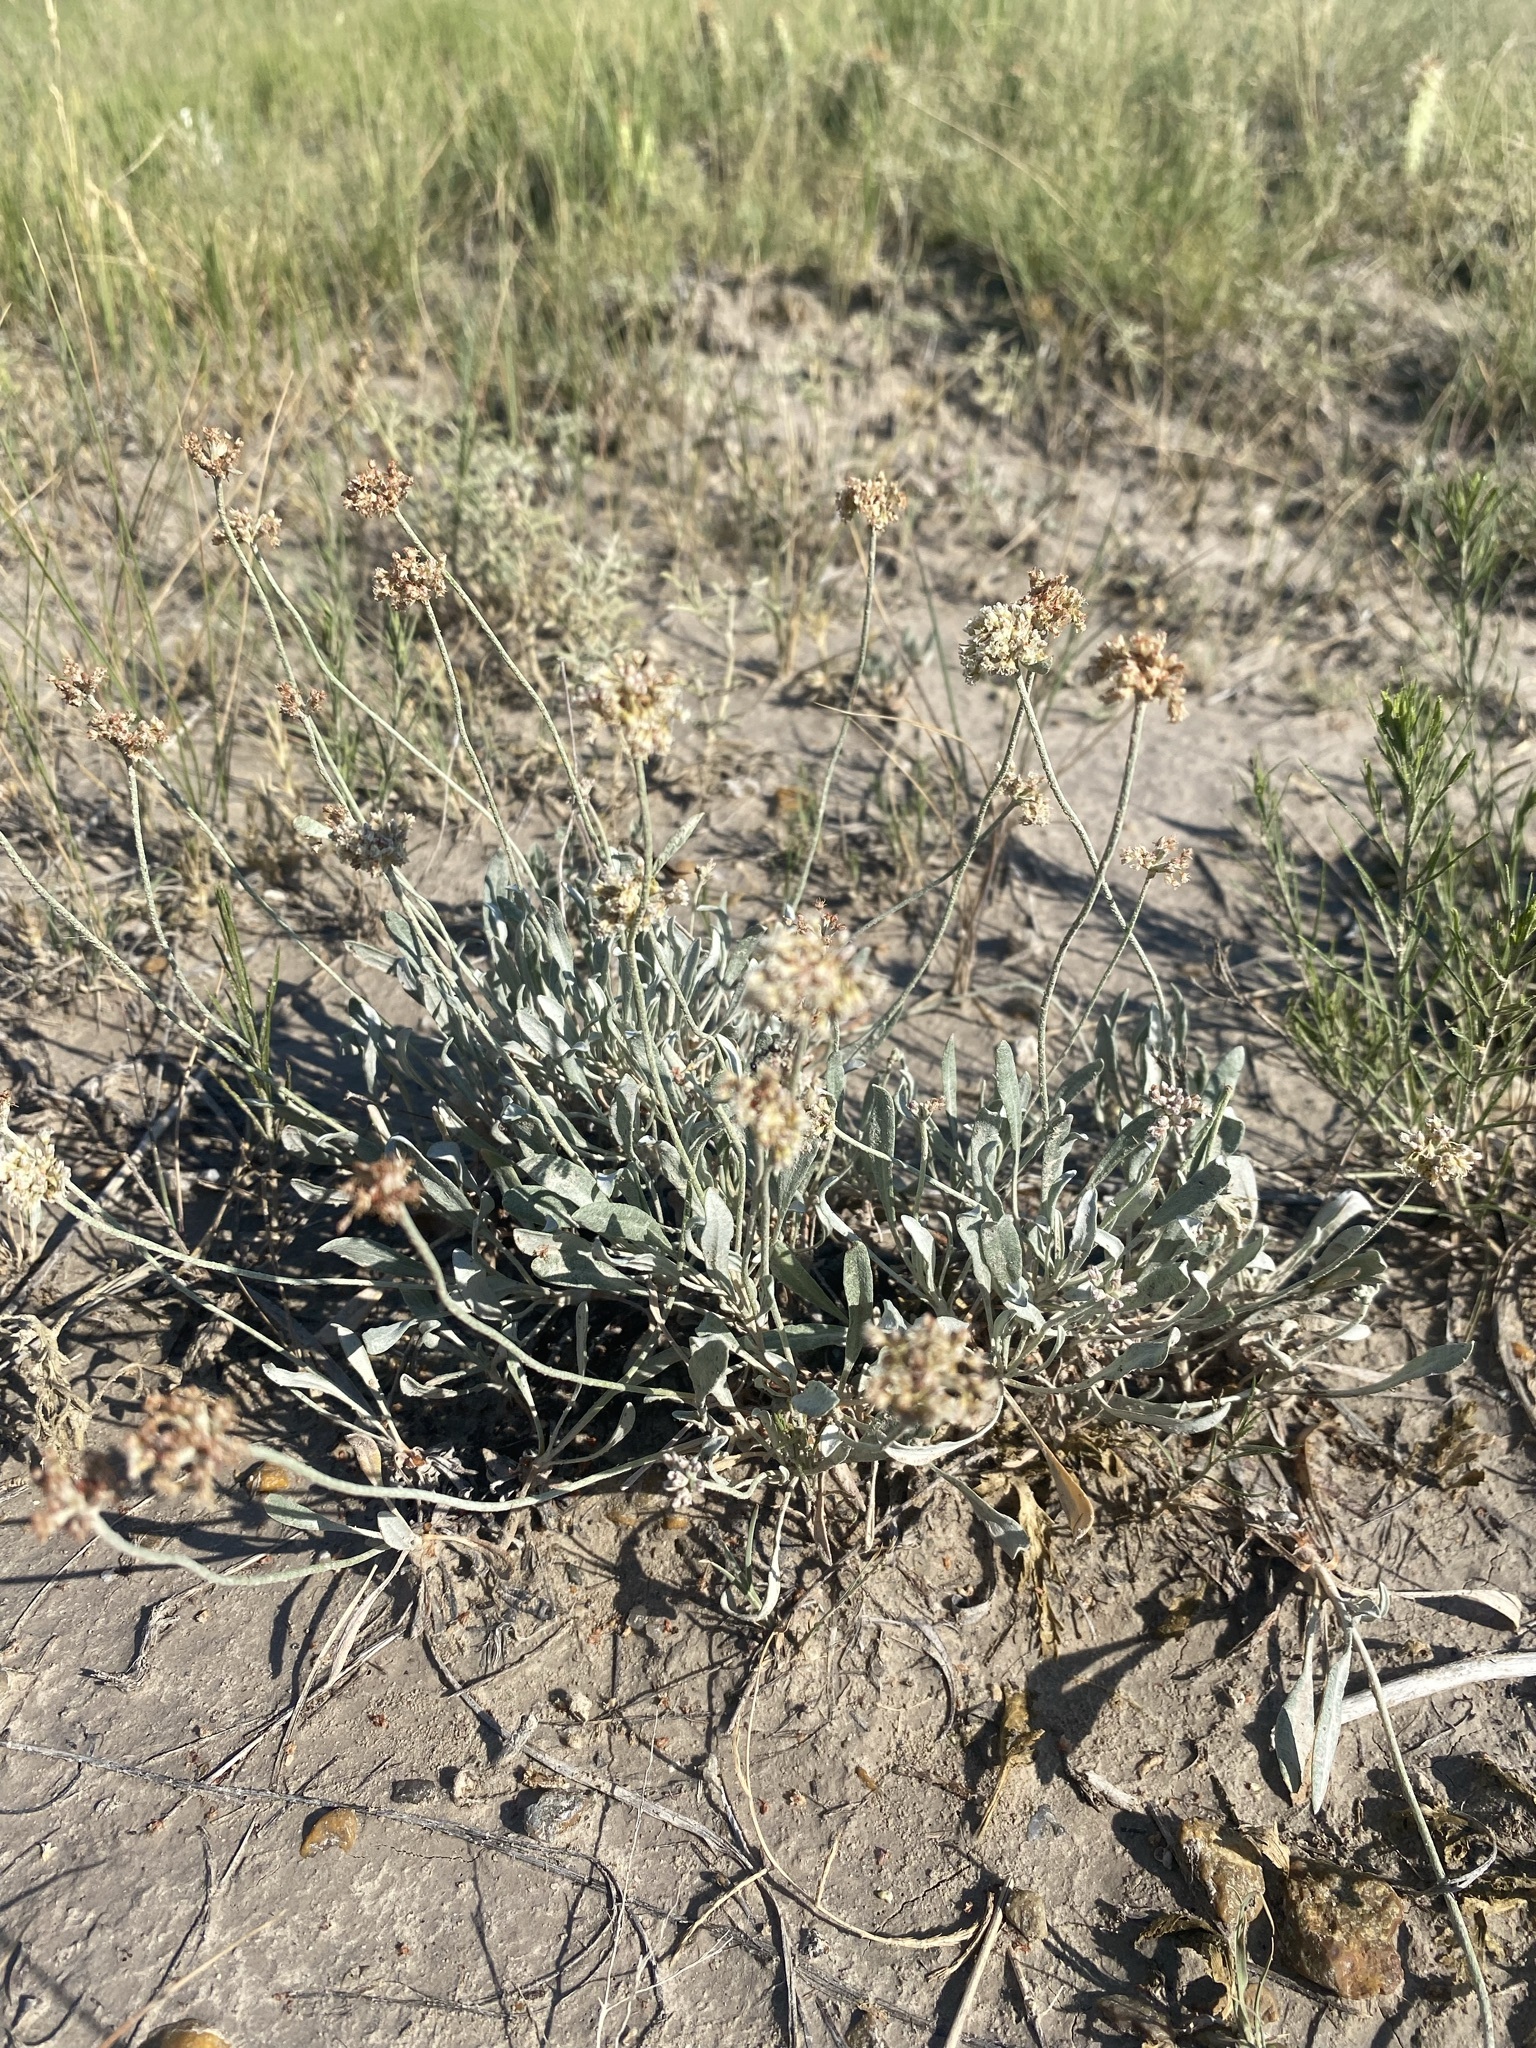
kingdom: Plantae
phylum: Tracheophyta
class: Magnoliopsida
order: Caryophyllales
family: Polygonaceae
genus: Eriogonum
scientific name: Eriogonum pauciflorum
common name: Few-flower wild buckwheat
